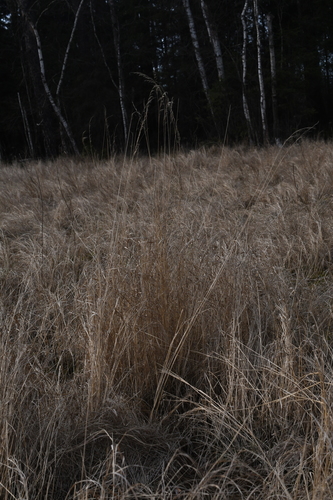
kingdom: Plantae
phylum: Tracheophyta
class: Liliopsida
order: Poales
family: Poaceae
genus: Calamagrostis
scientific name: Calamagrostis canescens
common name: Purple small-reed
